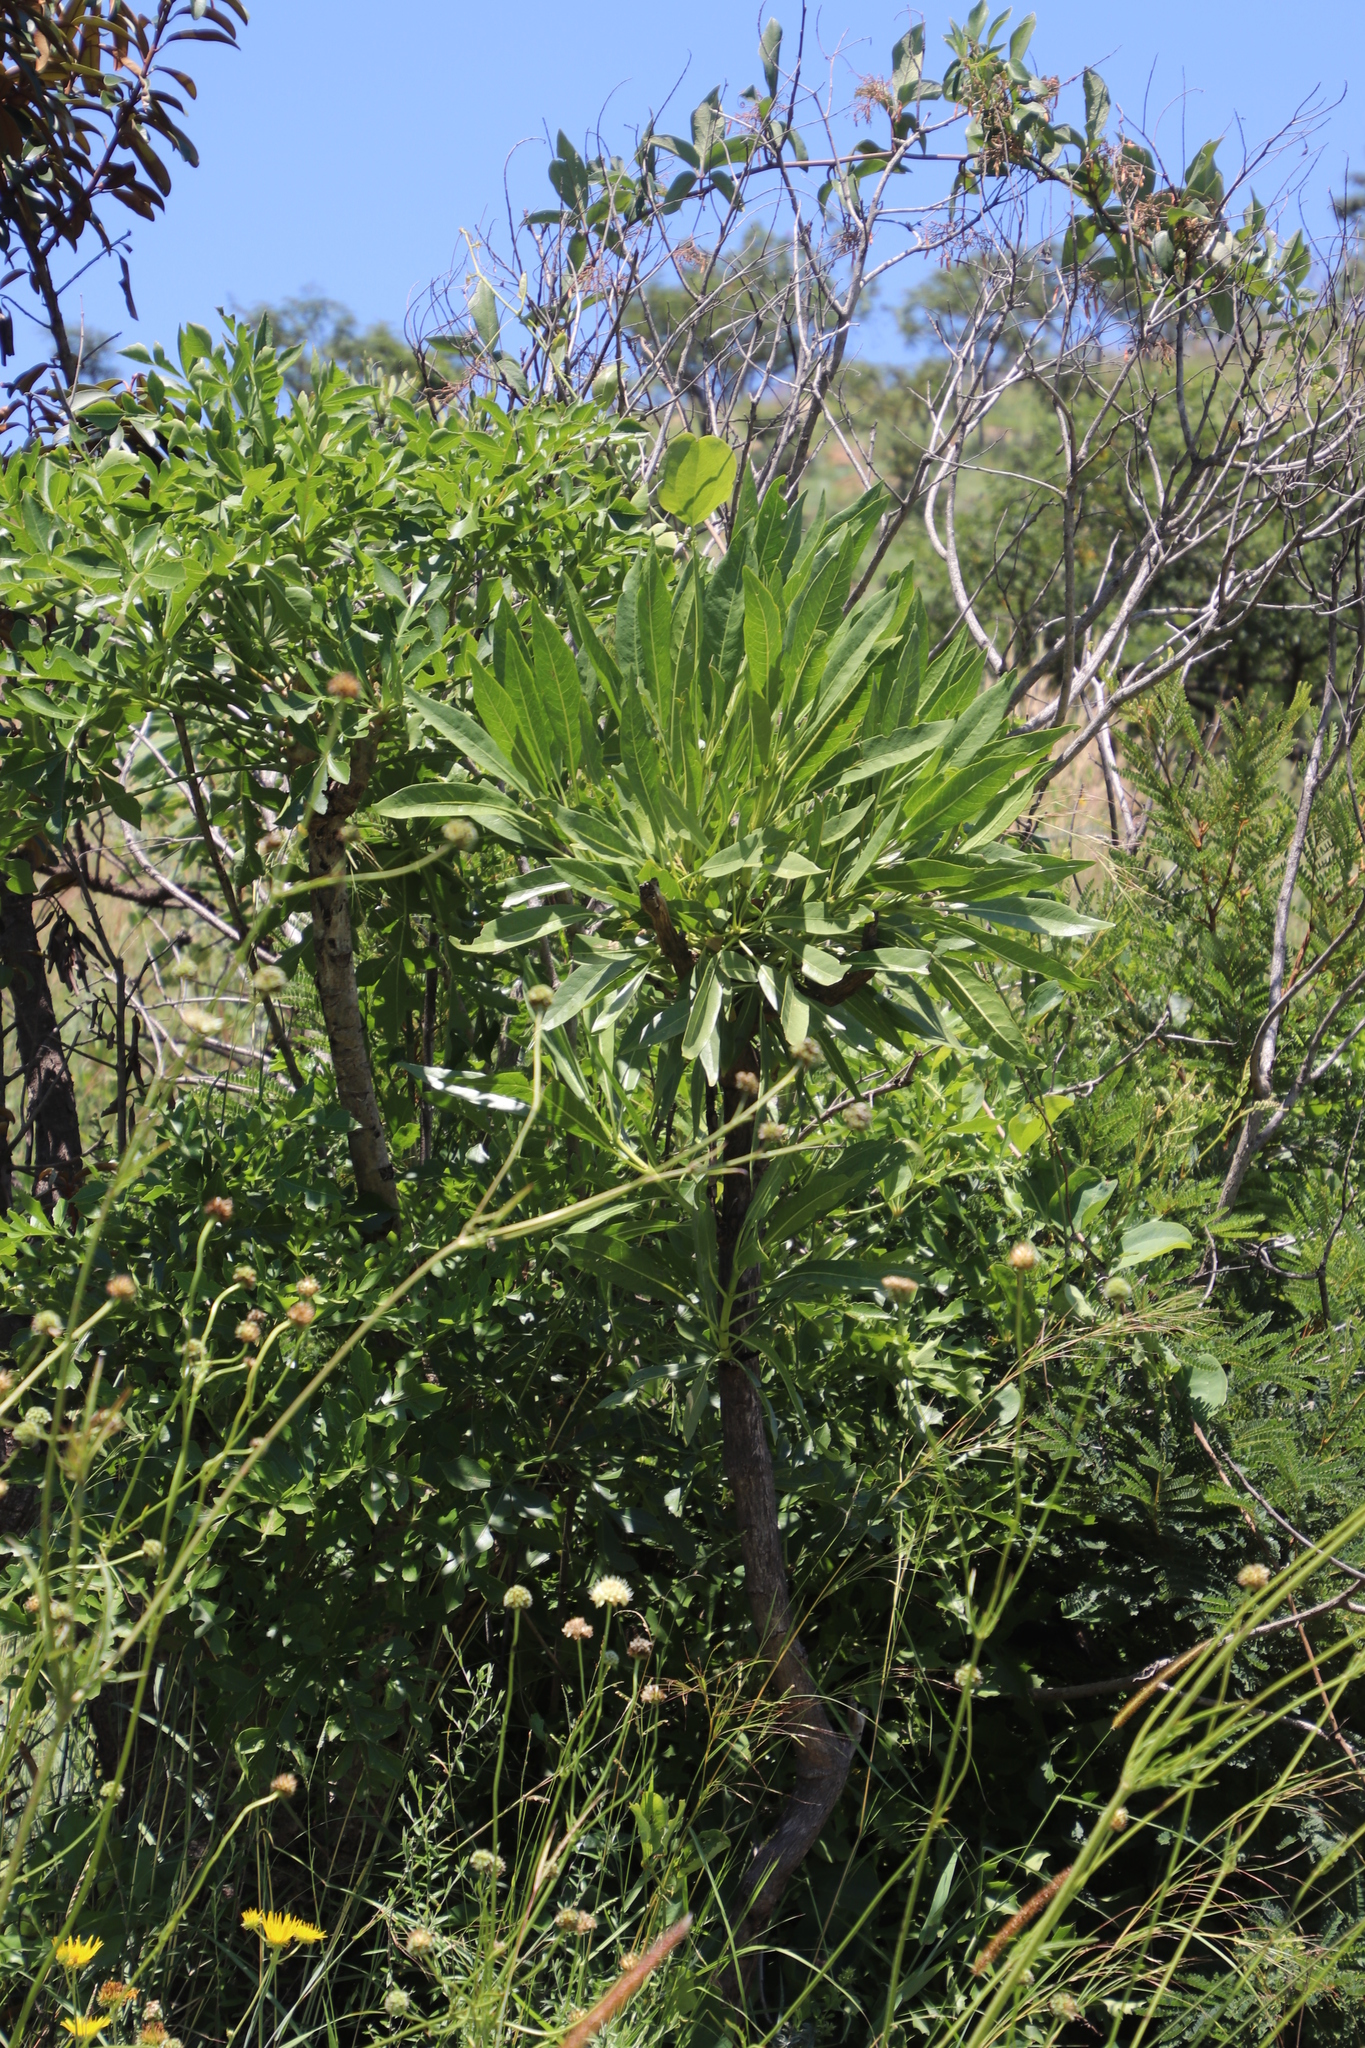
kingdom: Plantae
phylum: Tracheophyta
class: Magnoliopsida
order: Gentianales
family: Rubiaceae
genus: Pavetta
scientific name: Pavetta edentula
